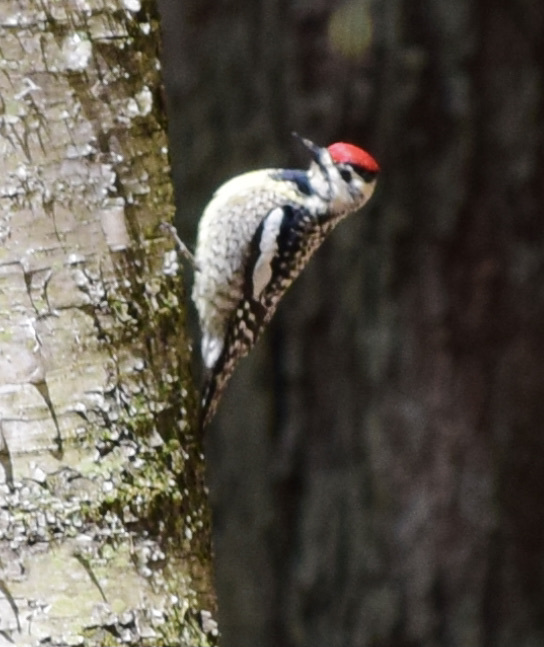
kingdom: Animalia
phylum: Chordata
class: Aves
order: Piciformes
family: Picidae
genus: Sphyrapicus
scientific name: Sphyrapicus varius
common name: Yellow-bellied sapsucker
